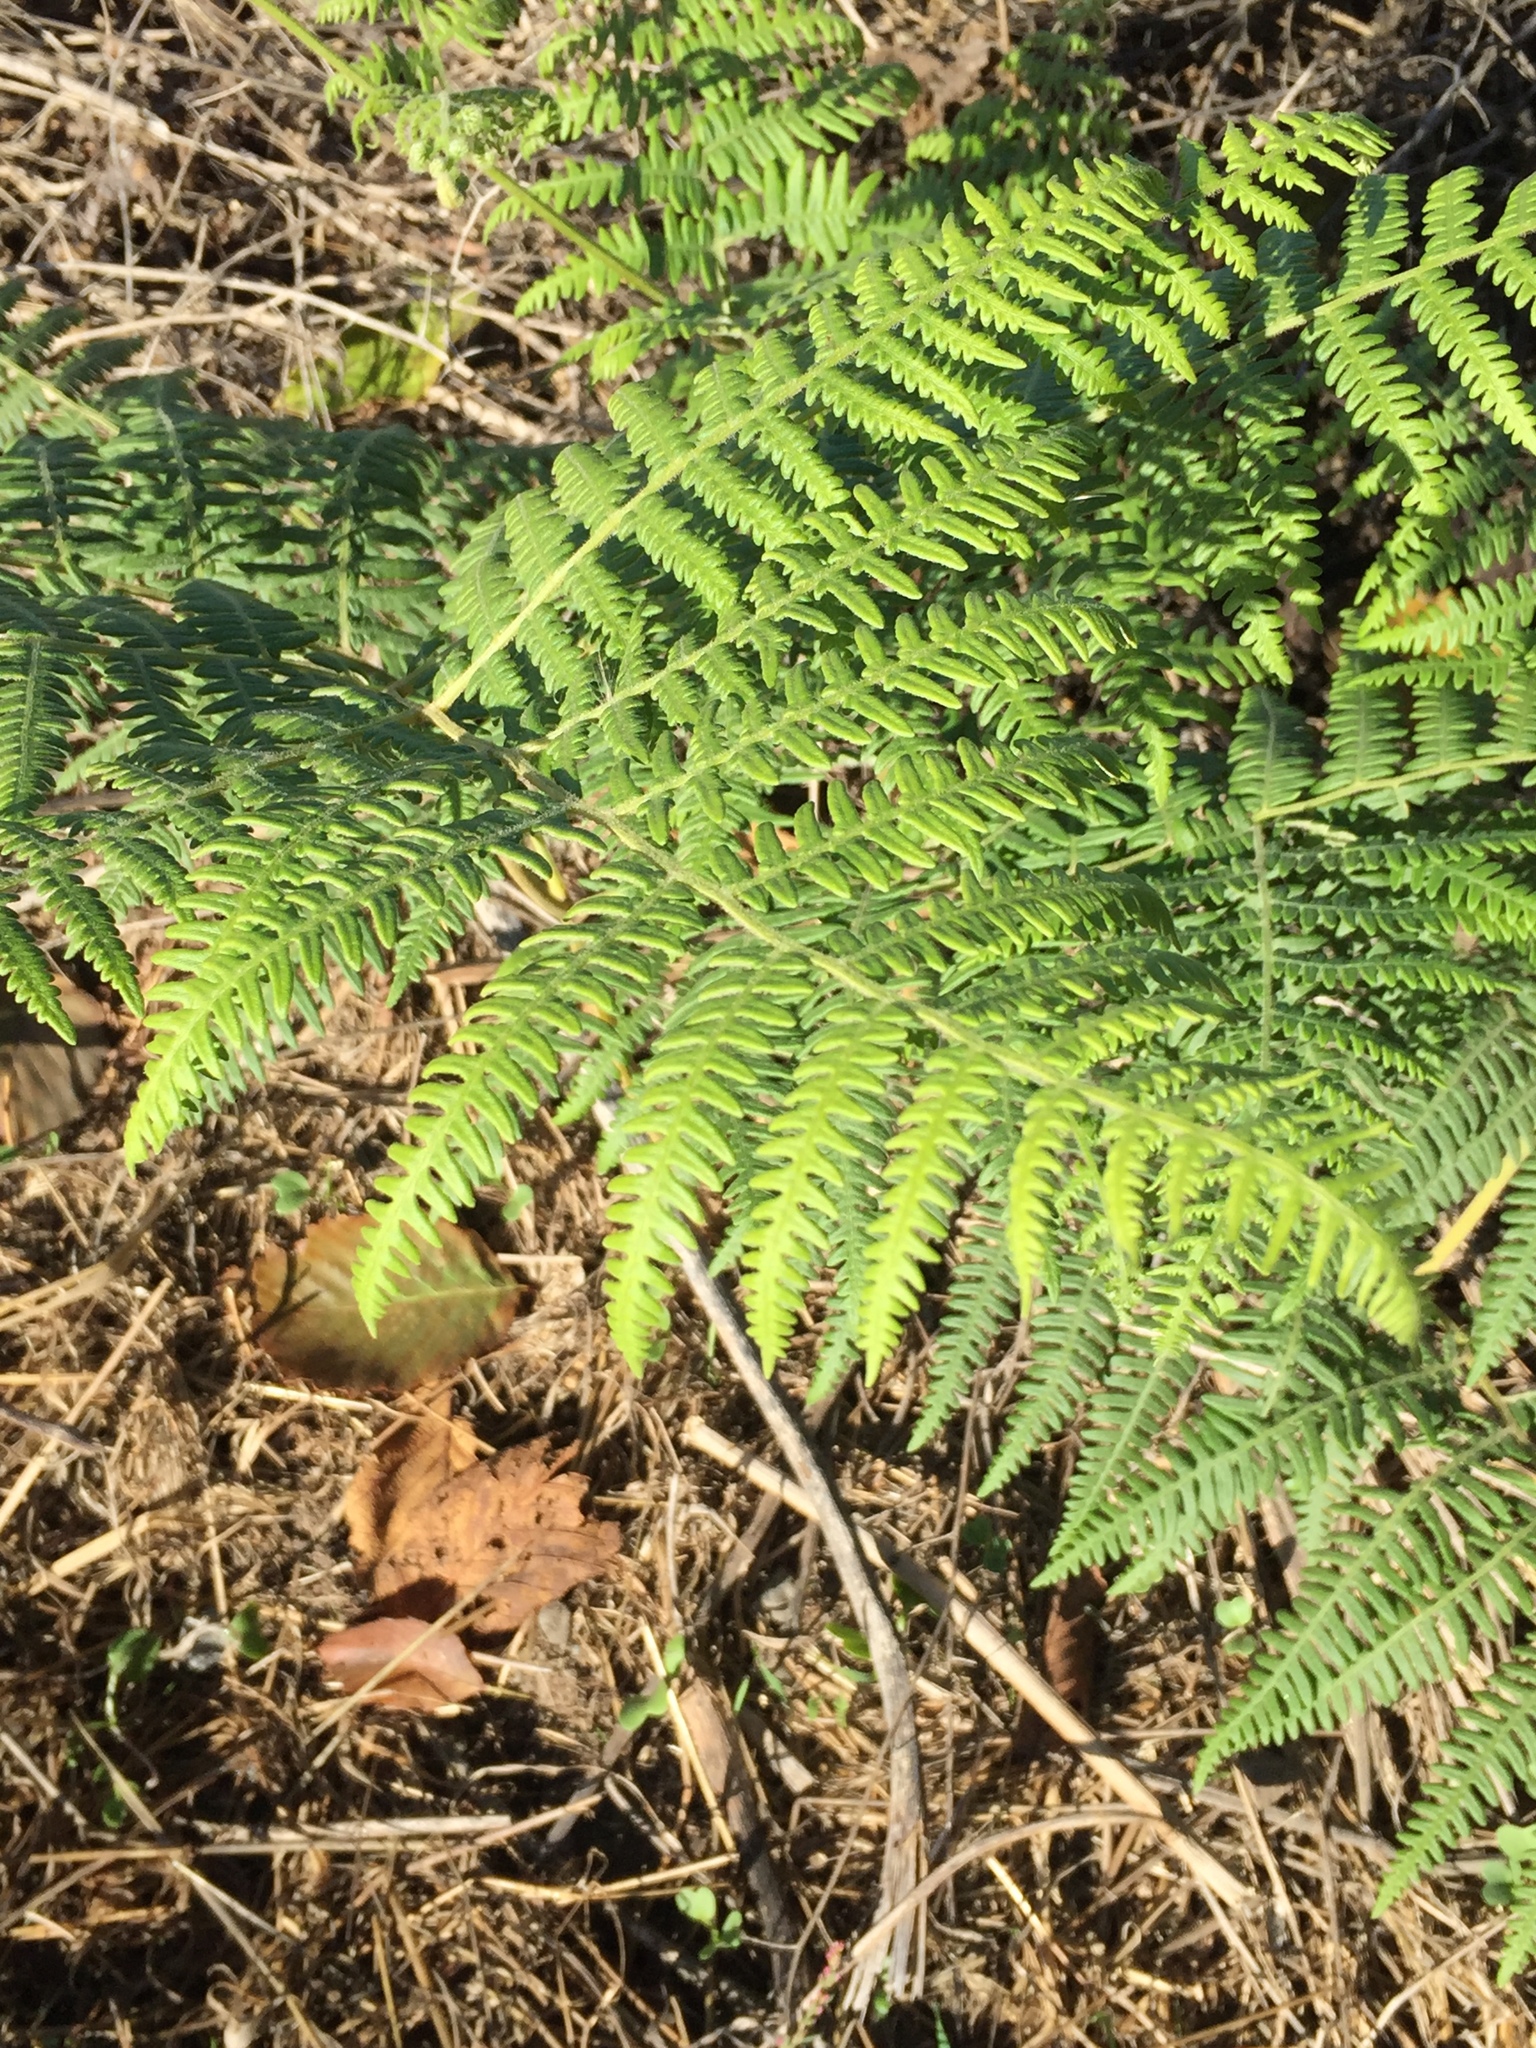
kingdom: Plantae
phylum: Tracheophyta
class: Polypodiopsida
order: Polypodiales
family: Dennstaedtiaceae
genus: Pteridium
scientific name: Pteridium aquilinum
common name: Bracken
